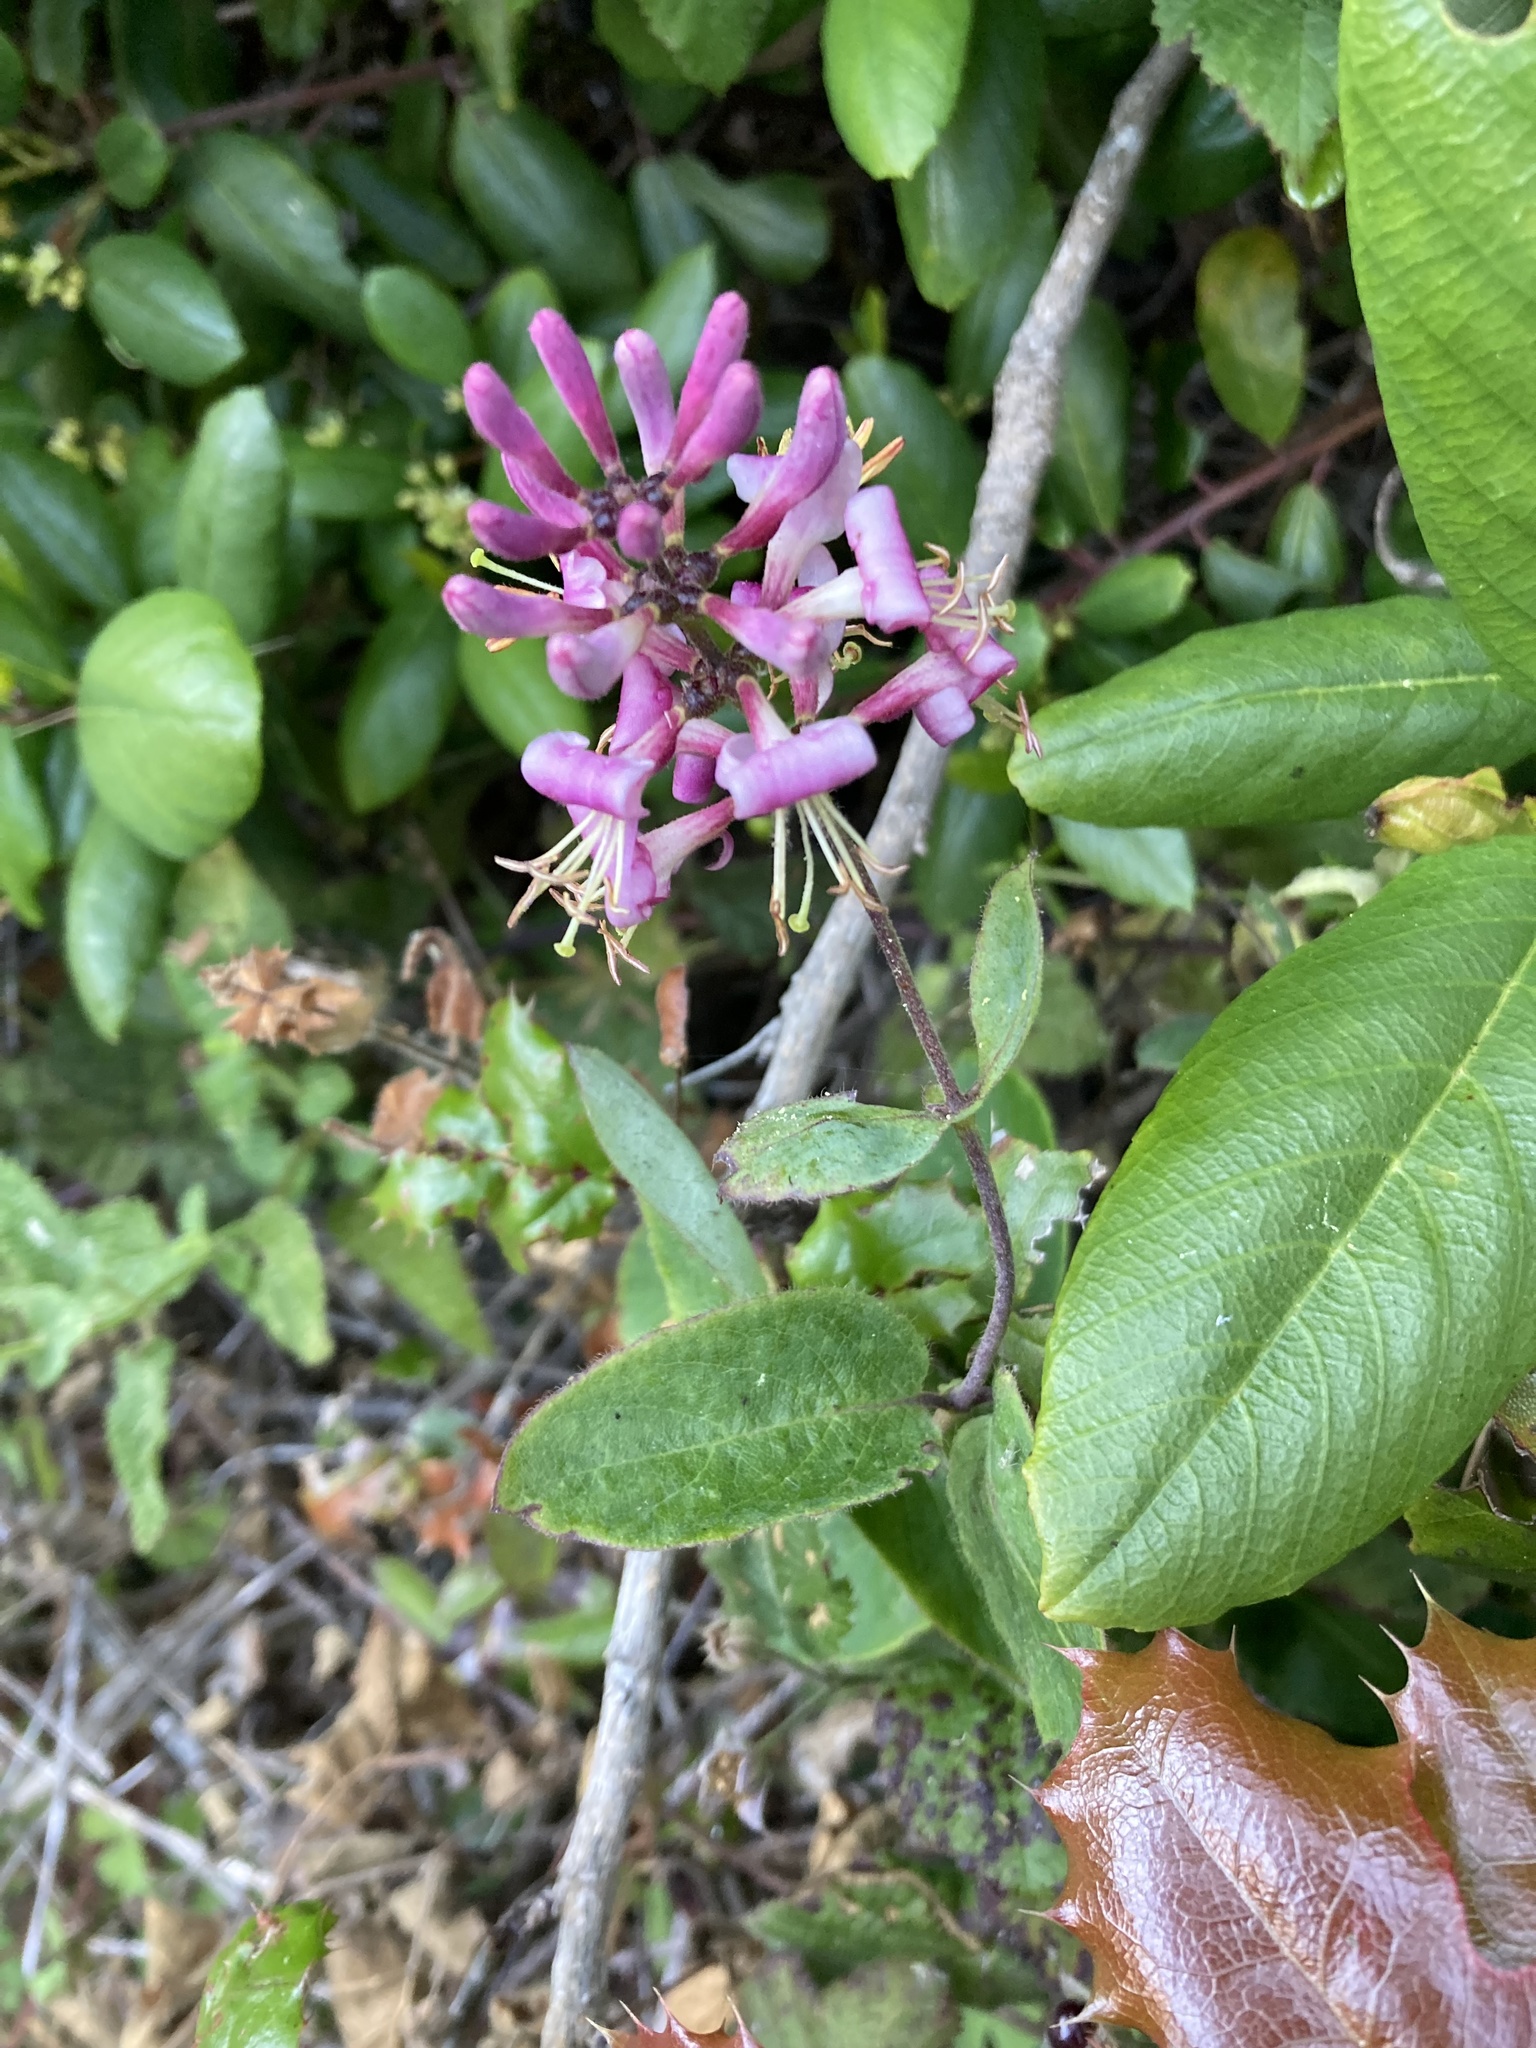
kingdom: Plantae
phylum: Tracheophyta
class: Magnoliopsida
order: Dipsacales
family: Caprifoliaceae
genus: Lonicera
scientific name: Lonicera hispidula
